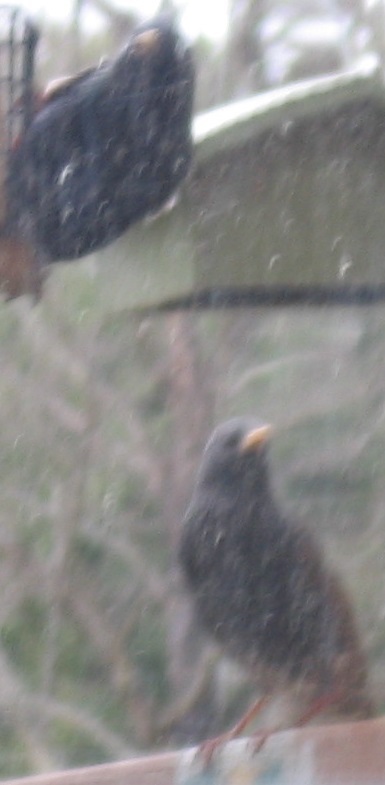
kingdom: Animalia
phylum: Chordata
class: Aves
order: Passeriformes
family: Sturnidae
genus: Sturnus
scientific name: Sturnus vulgaris
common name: Common starling
